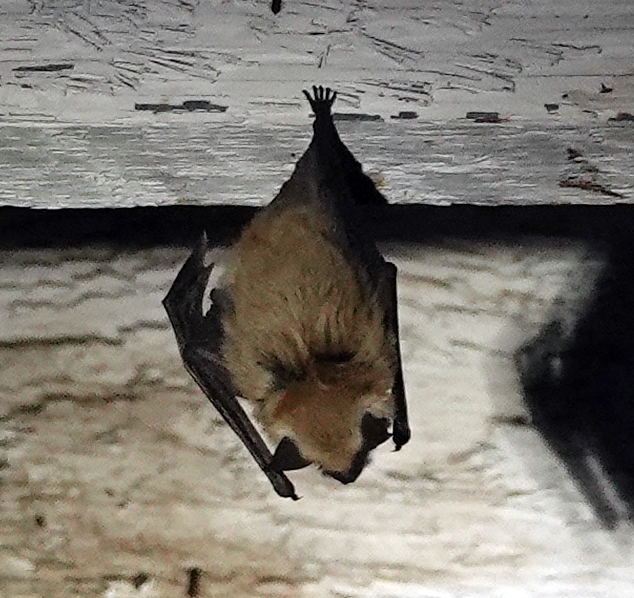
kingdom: Animalia
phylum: Chordata
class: Mammalia
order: Chiroptera
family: Vespertilionidae
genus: Myotis
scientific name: Myotis ciliolabrum
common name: Western small-footed myotis
